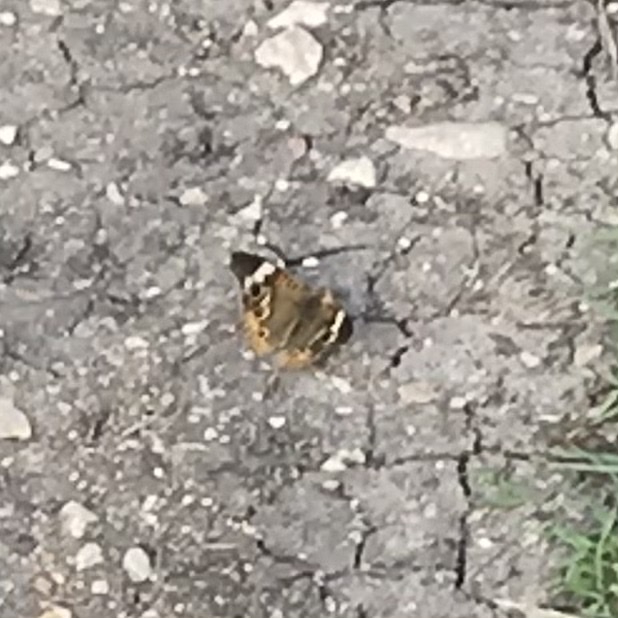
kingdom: Animalia
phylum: Arthropoda
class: Insecta
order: Lepidoptera
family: Nymphalidae
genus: Junonia
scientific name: Junonia coenia
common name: Common buckeye
